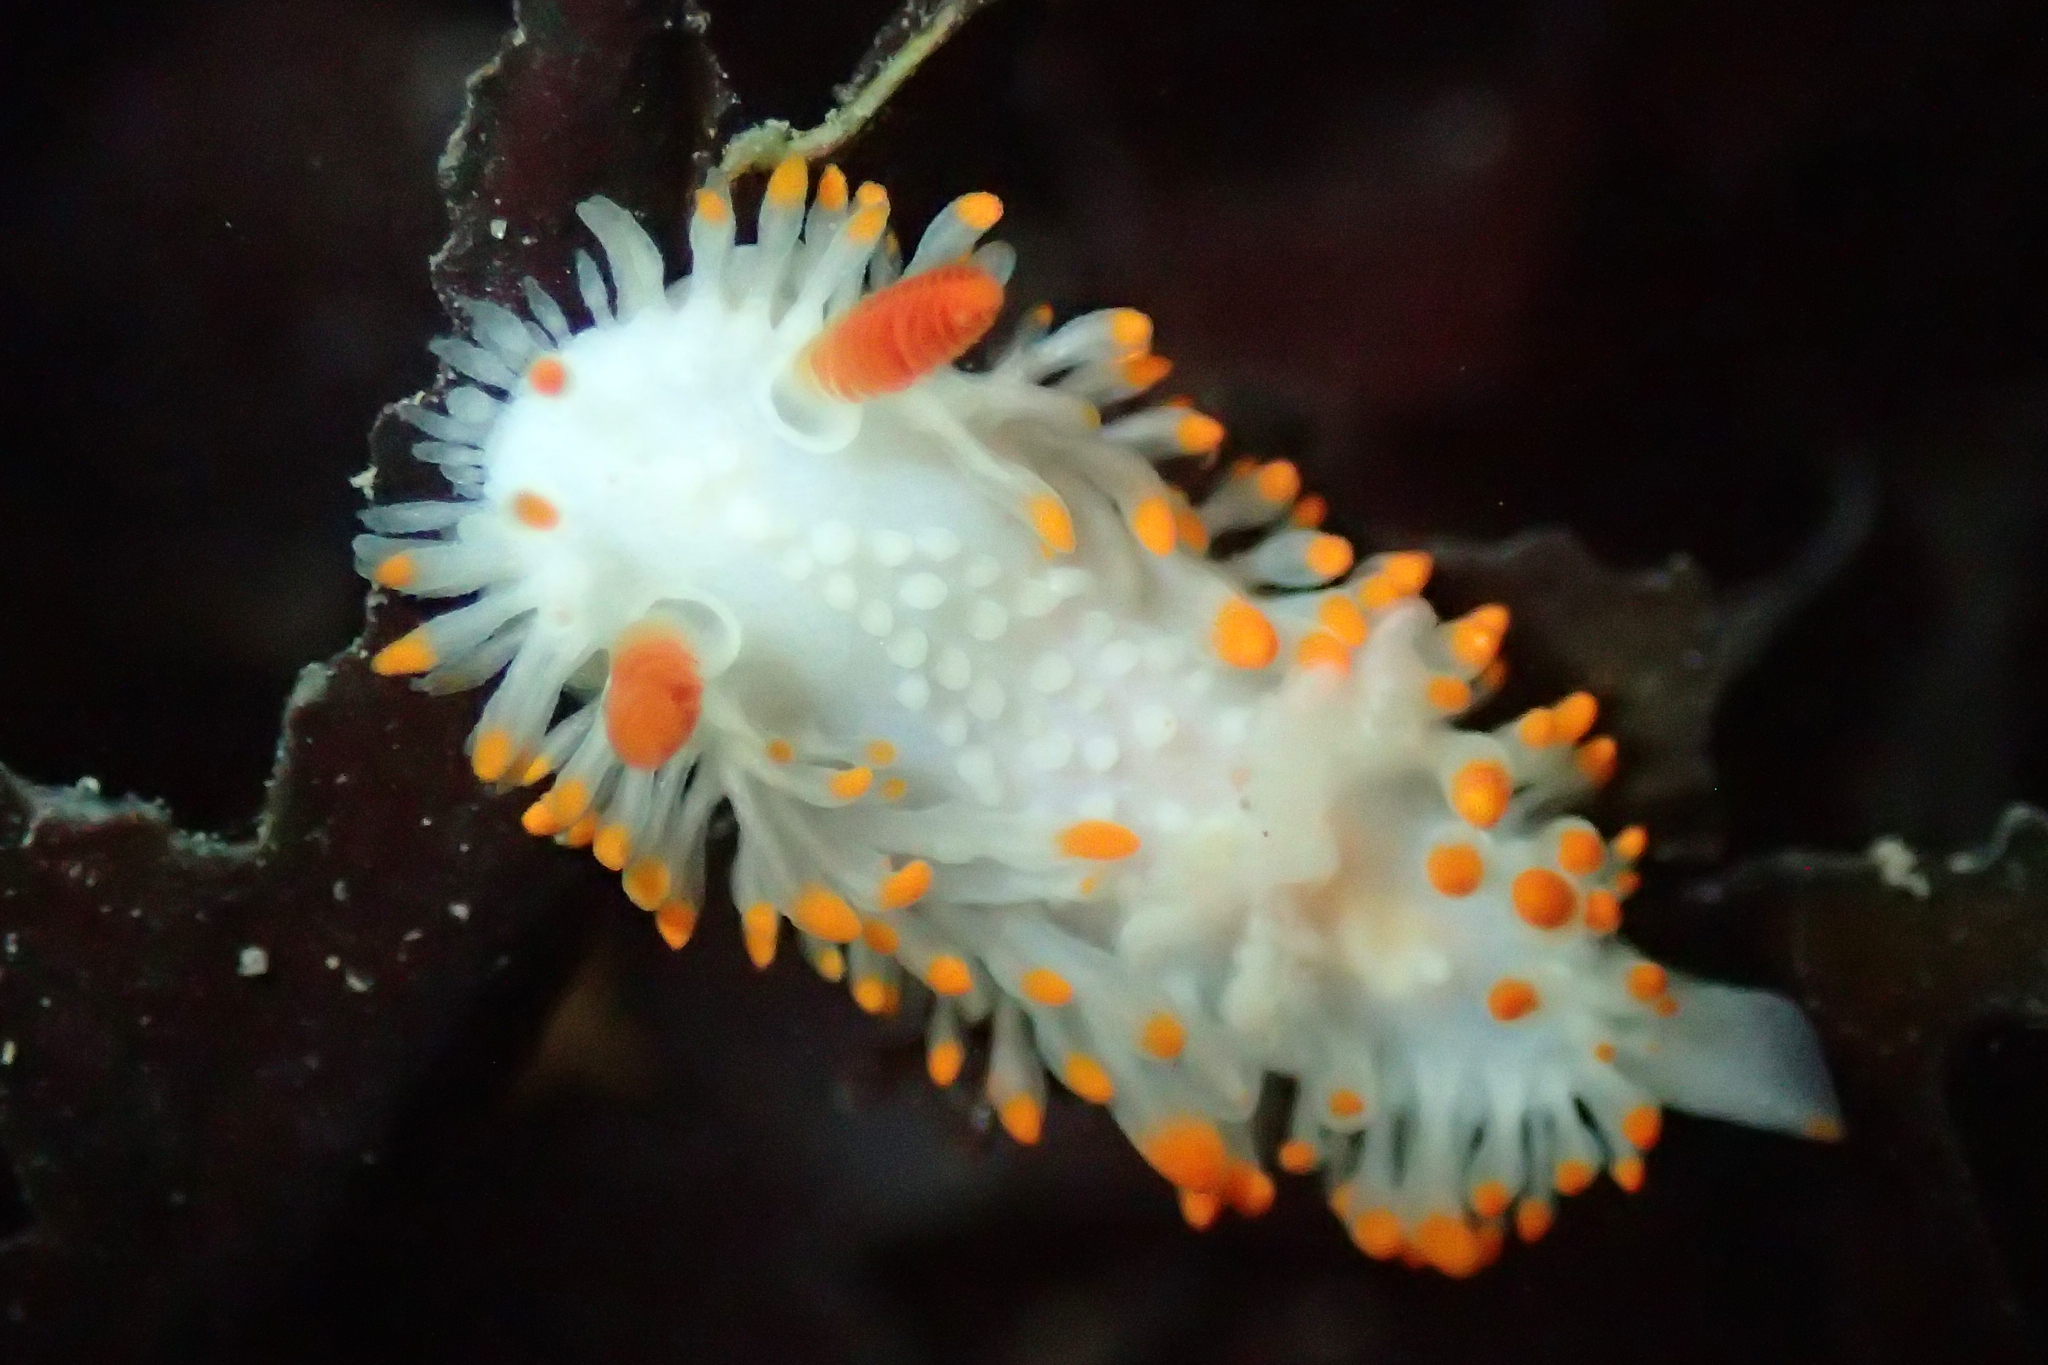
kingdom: Animalia
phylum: Mollusca
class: Gastropoda
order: Nudibranchia
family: Polyceridae
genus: Limacia
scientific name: Limacia cockerelli
